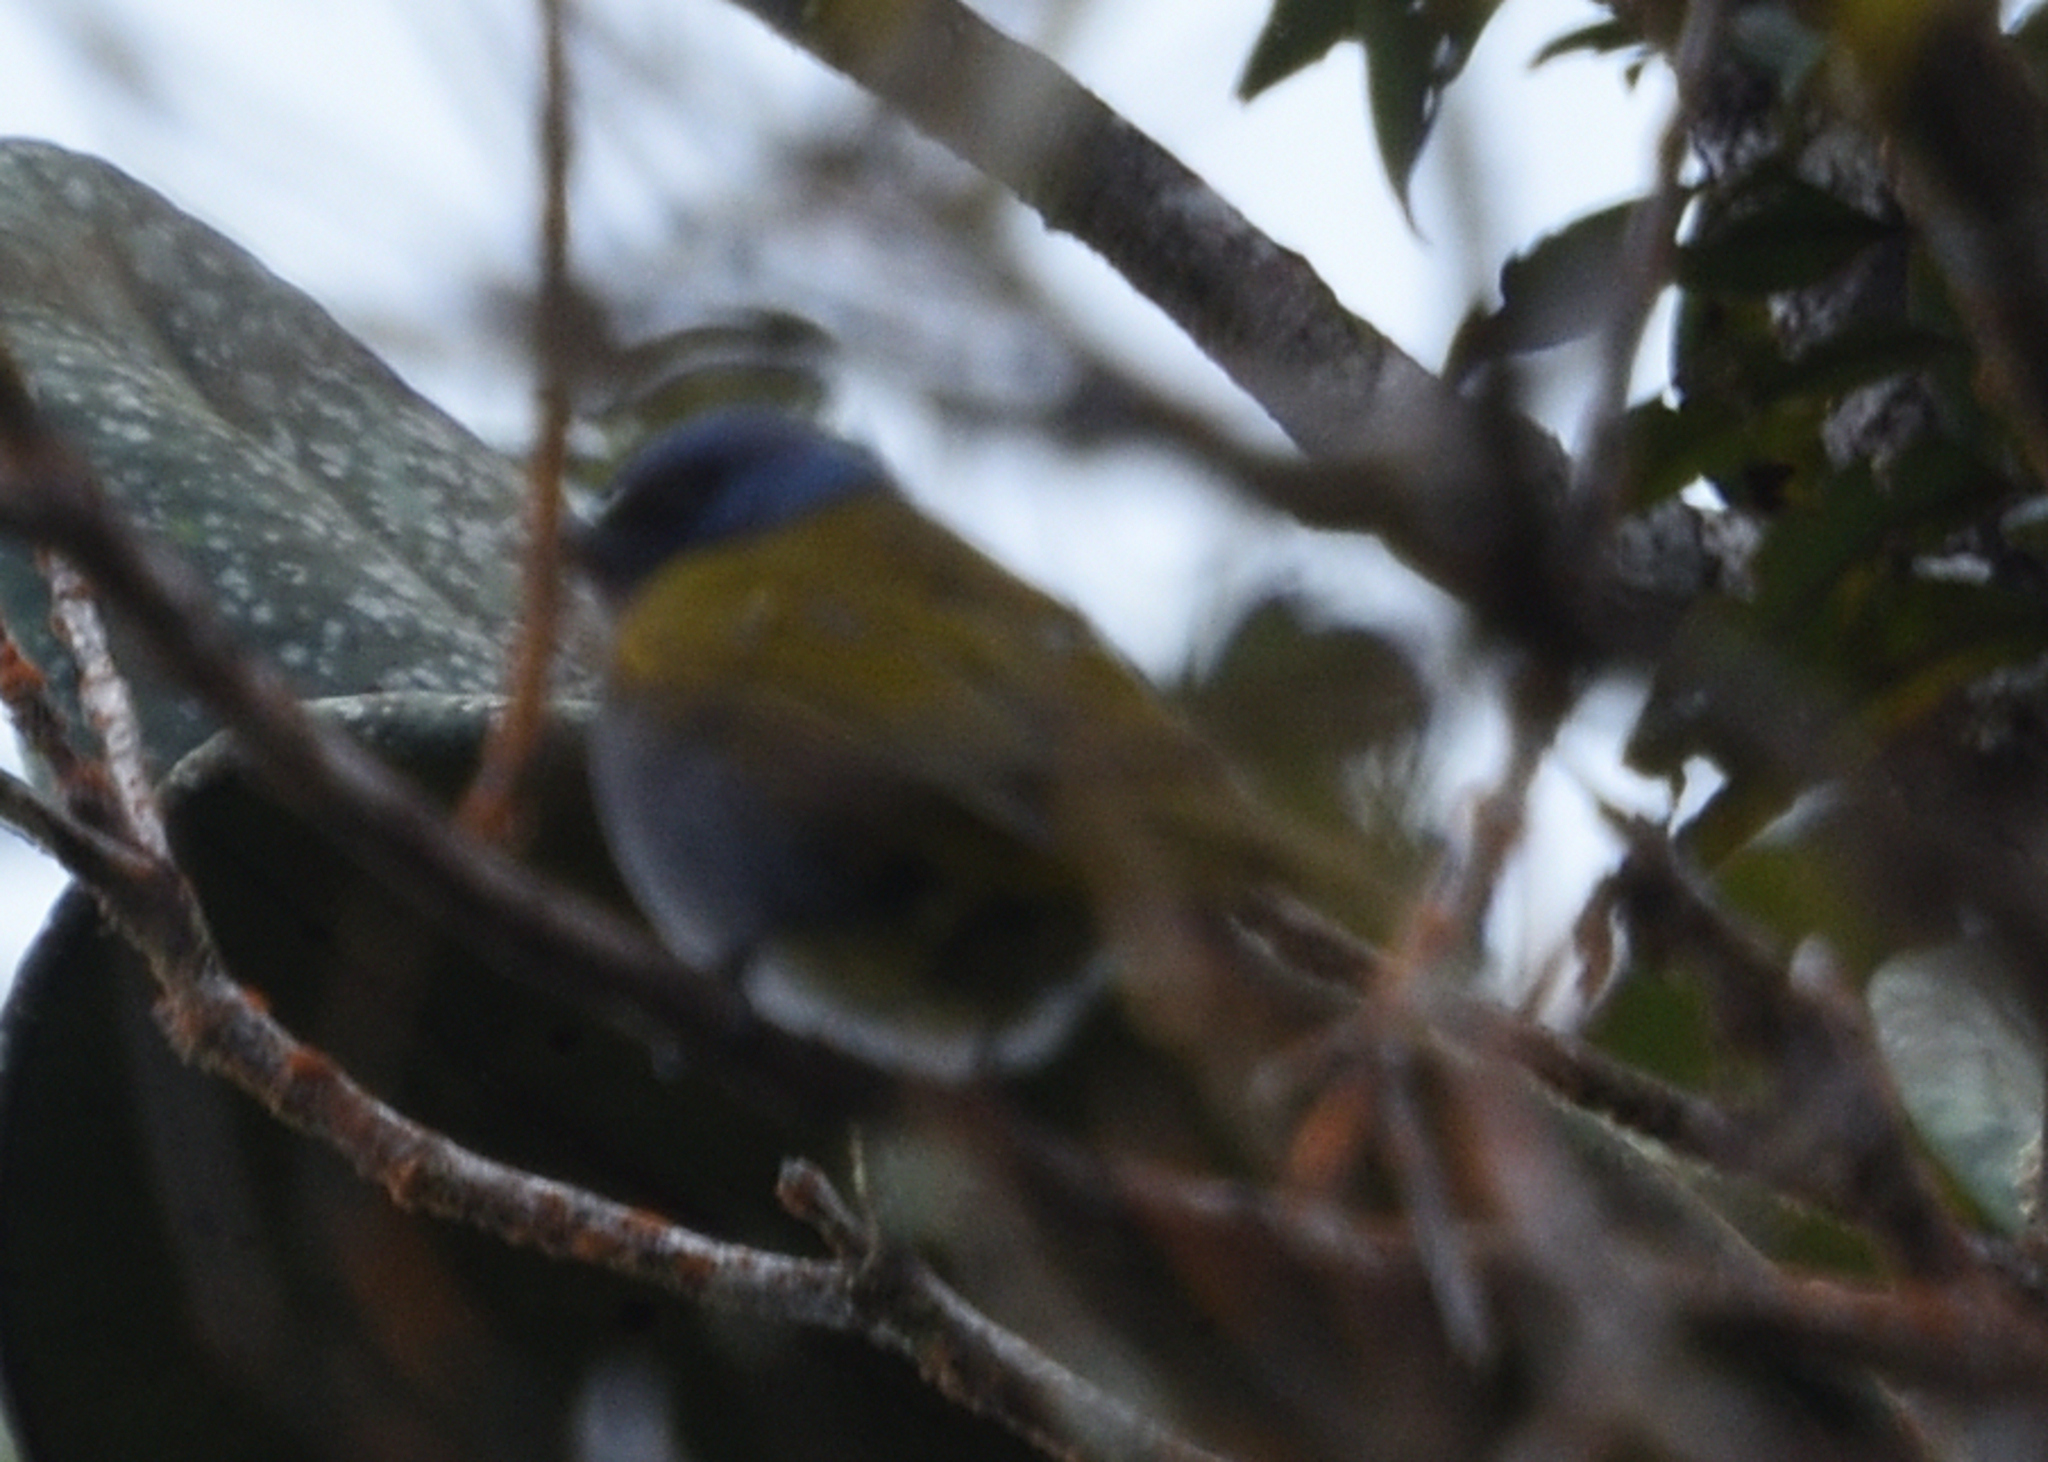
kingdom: Animalia
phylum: Chordata
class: Aves
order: Passeriformes
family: Thraupidae
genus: Sporathraupis
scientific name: Sporathraupis cyanocephala
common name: Blue-capped tanager
